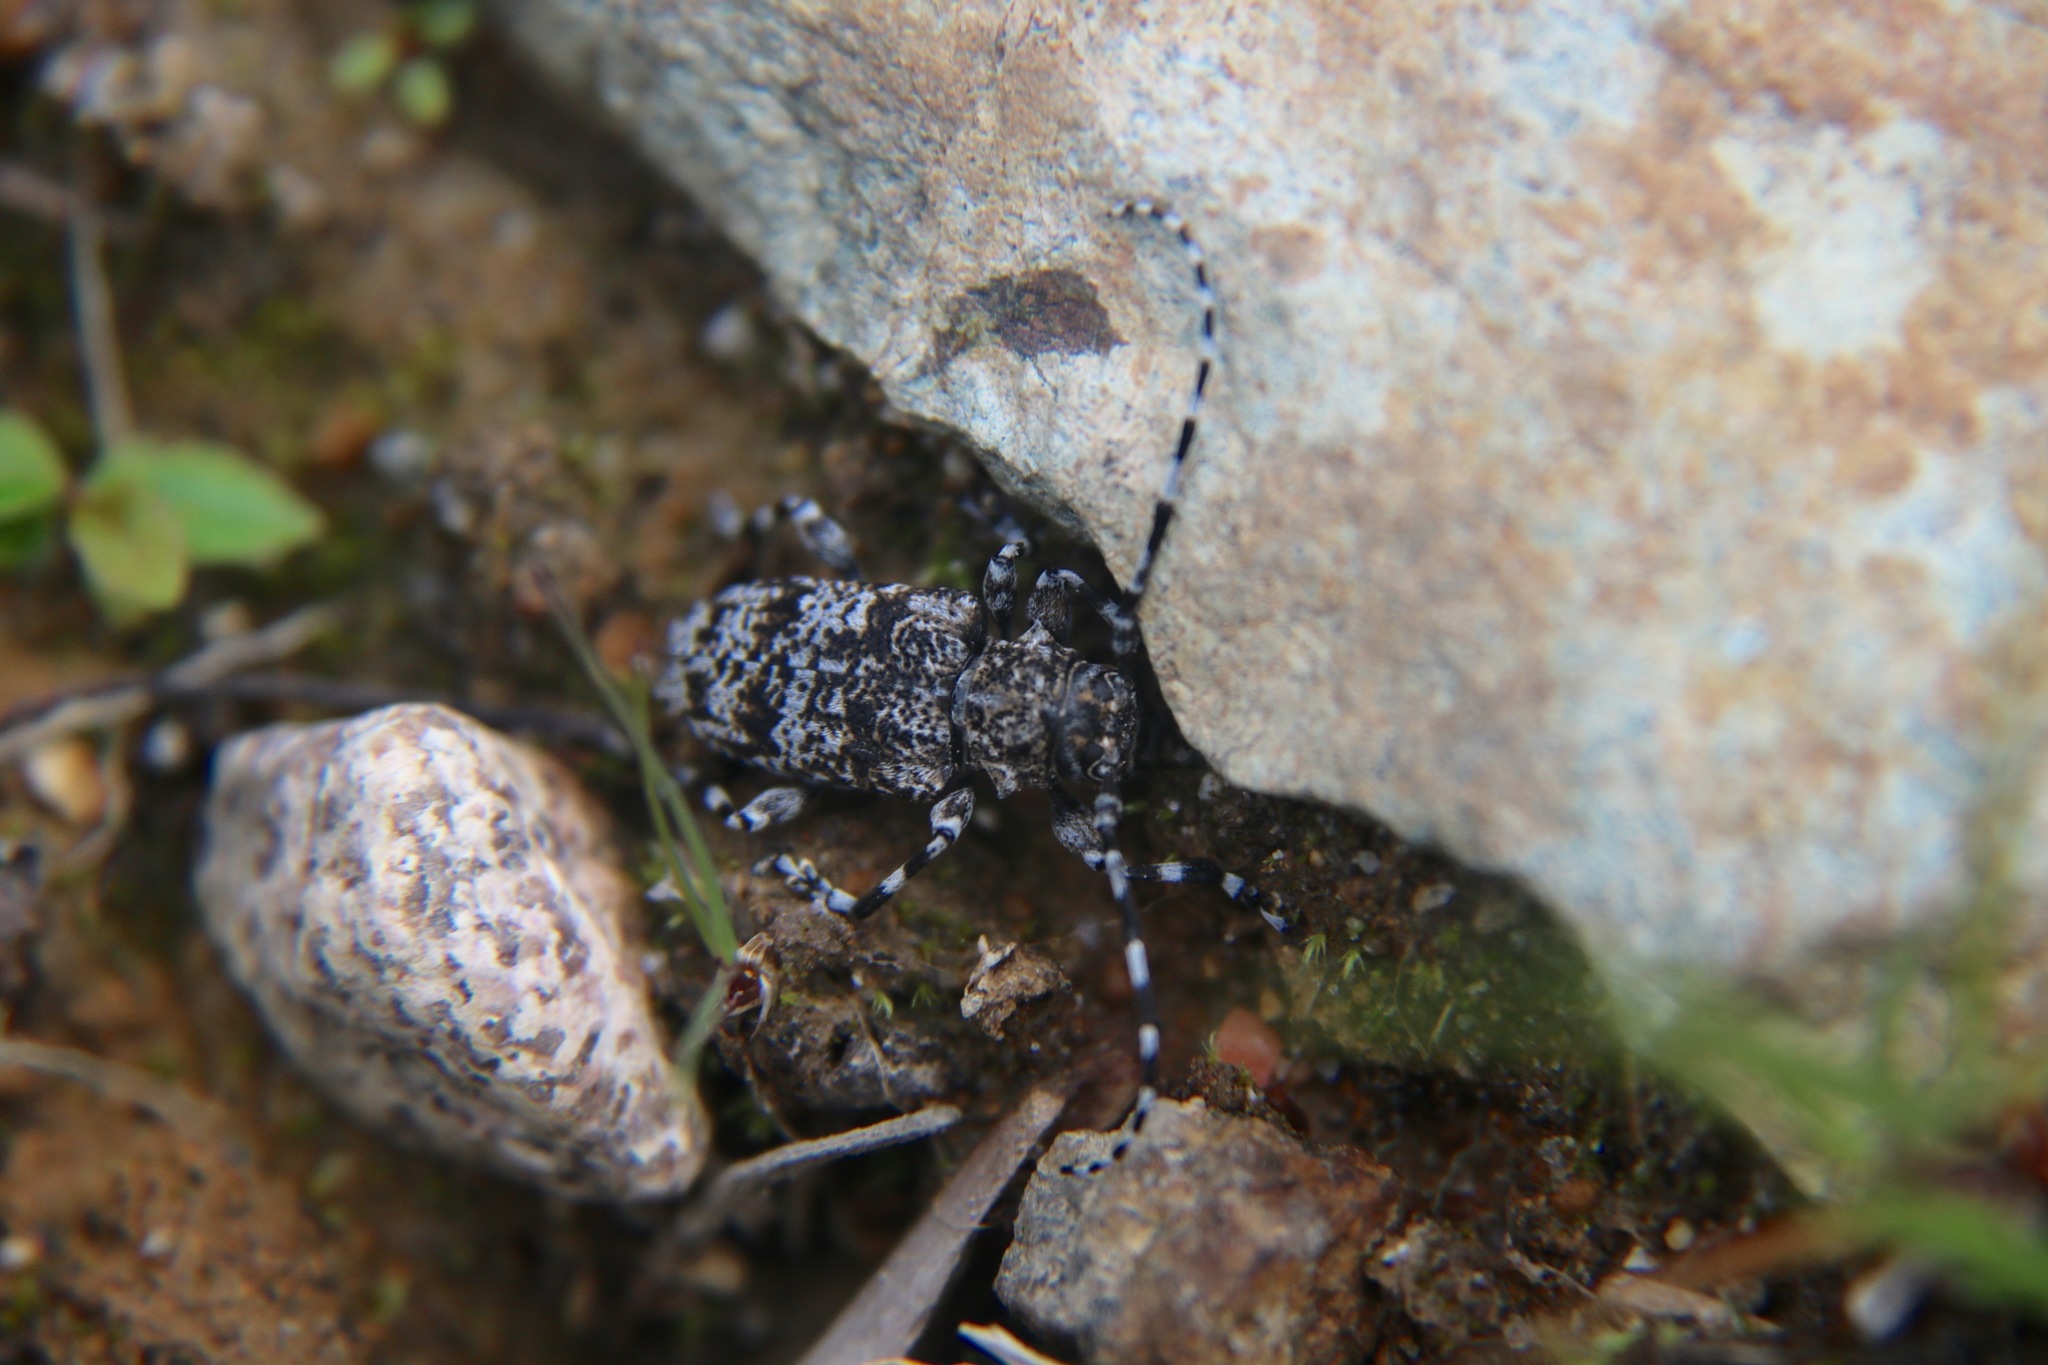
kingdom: Animalia
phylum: Arthropoda
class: Insecta
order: Coleoptera
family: Cerambycidae
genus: Aegomorphus
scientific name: Aegomorphus clavipes
